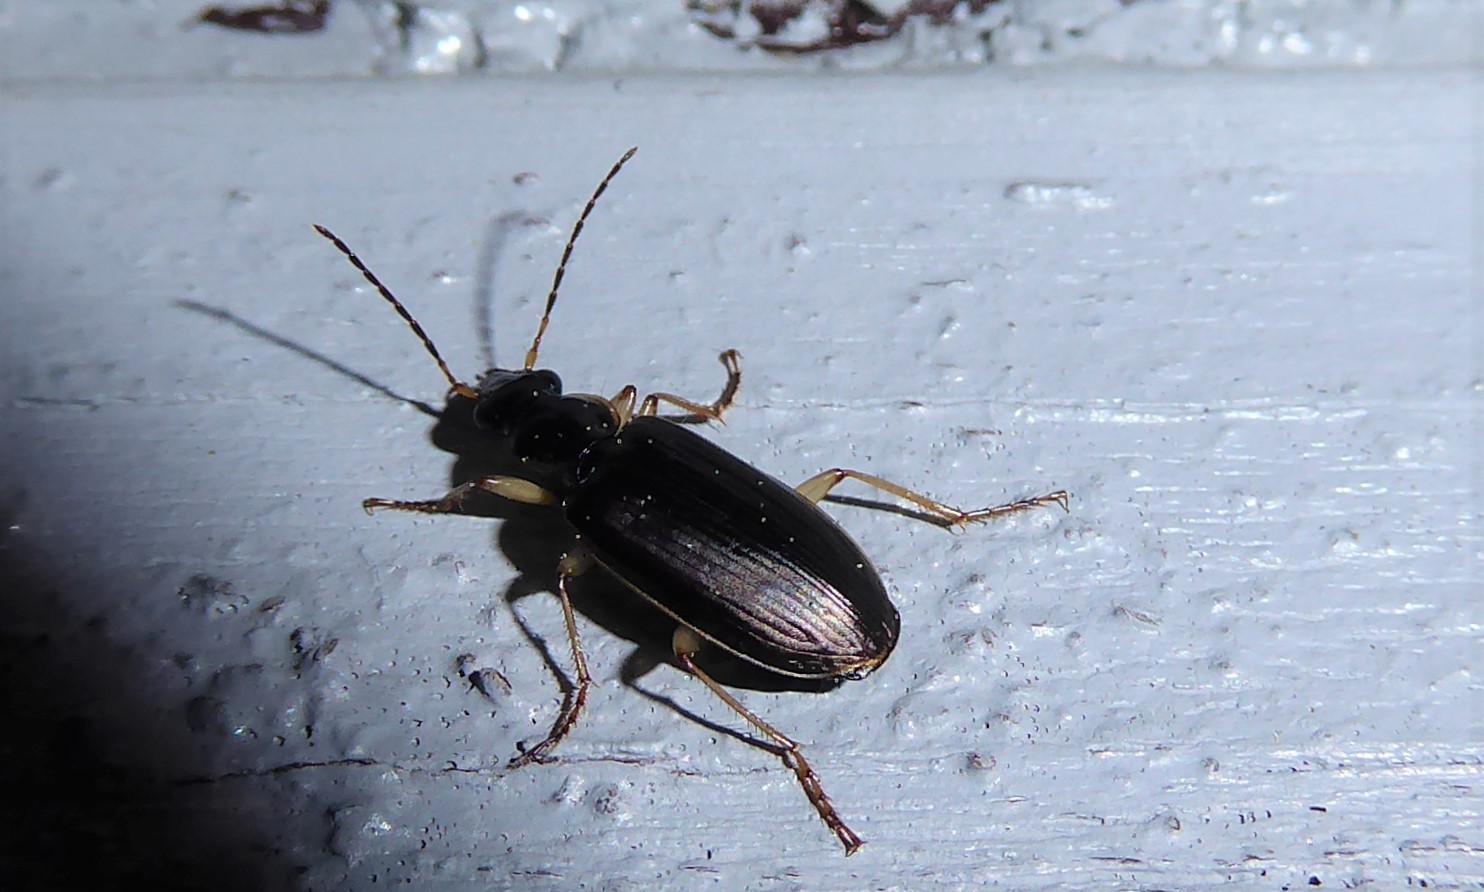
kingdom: Animalia
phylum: Arthropoda
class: Insecta
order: Coleoptera
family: Carabidae
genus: Notagonum
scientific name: Notagonum submetallicum
